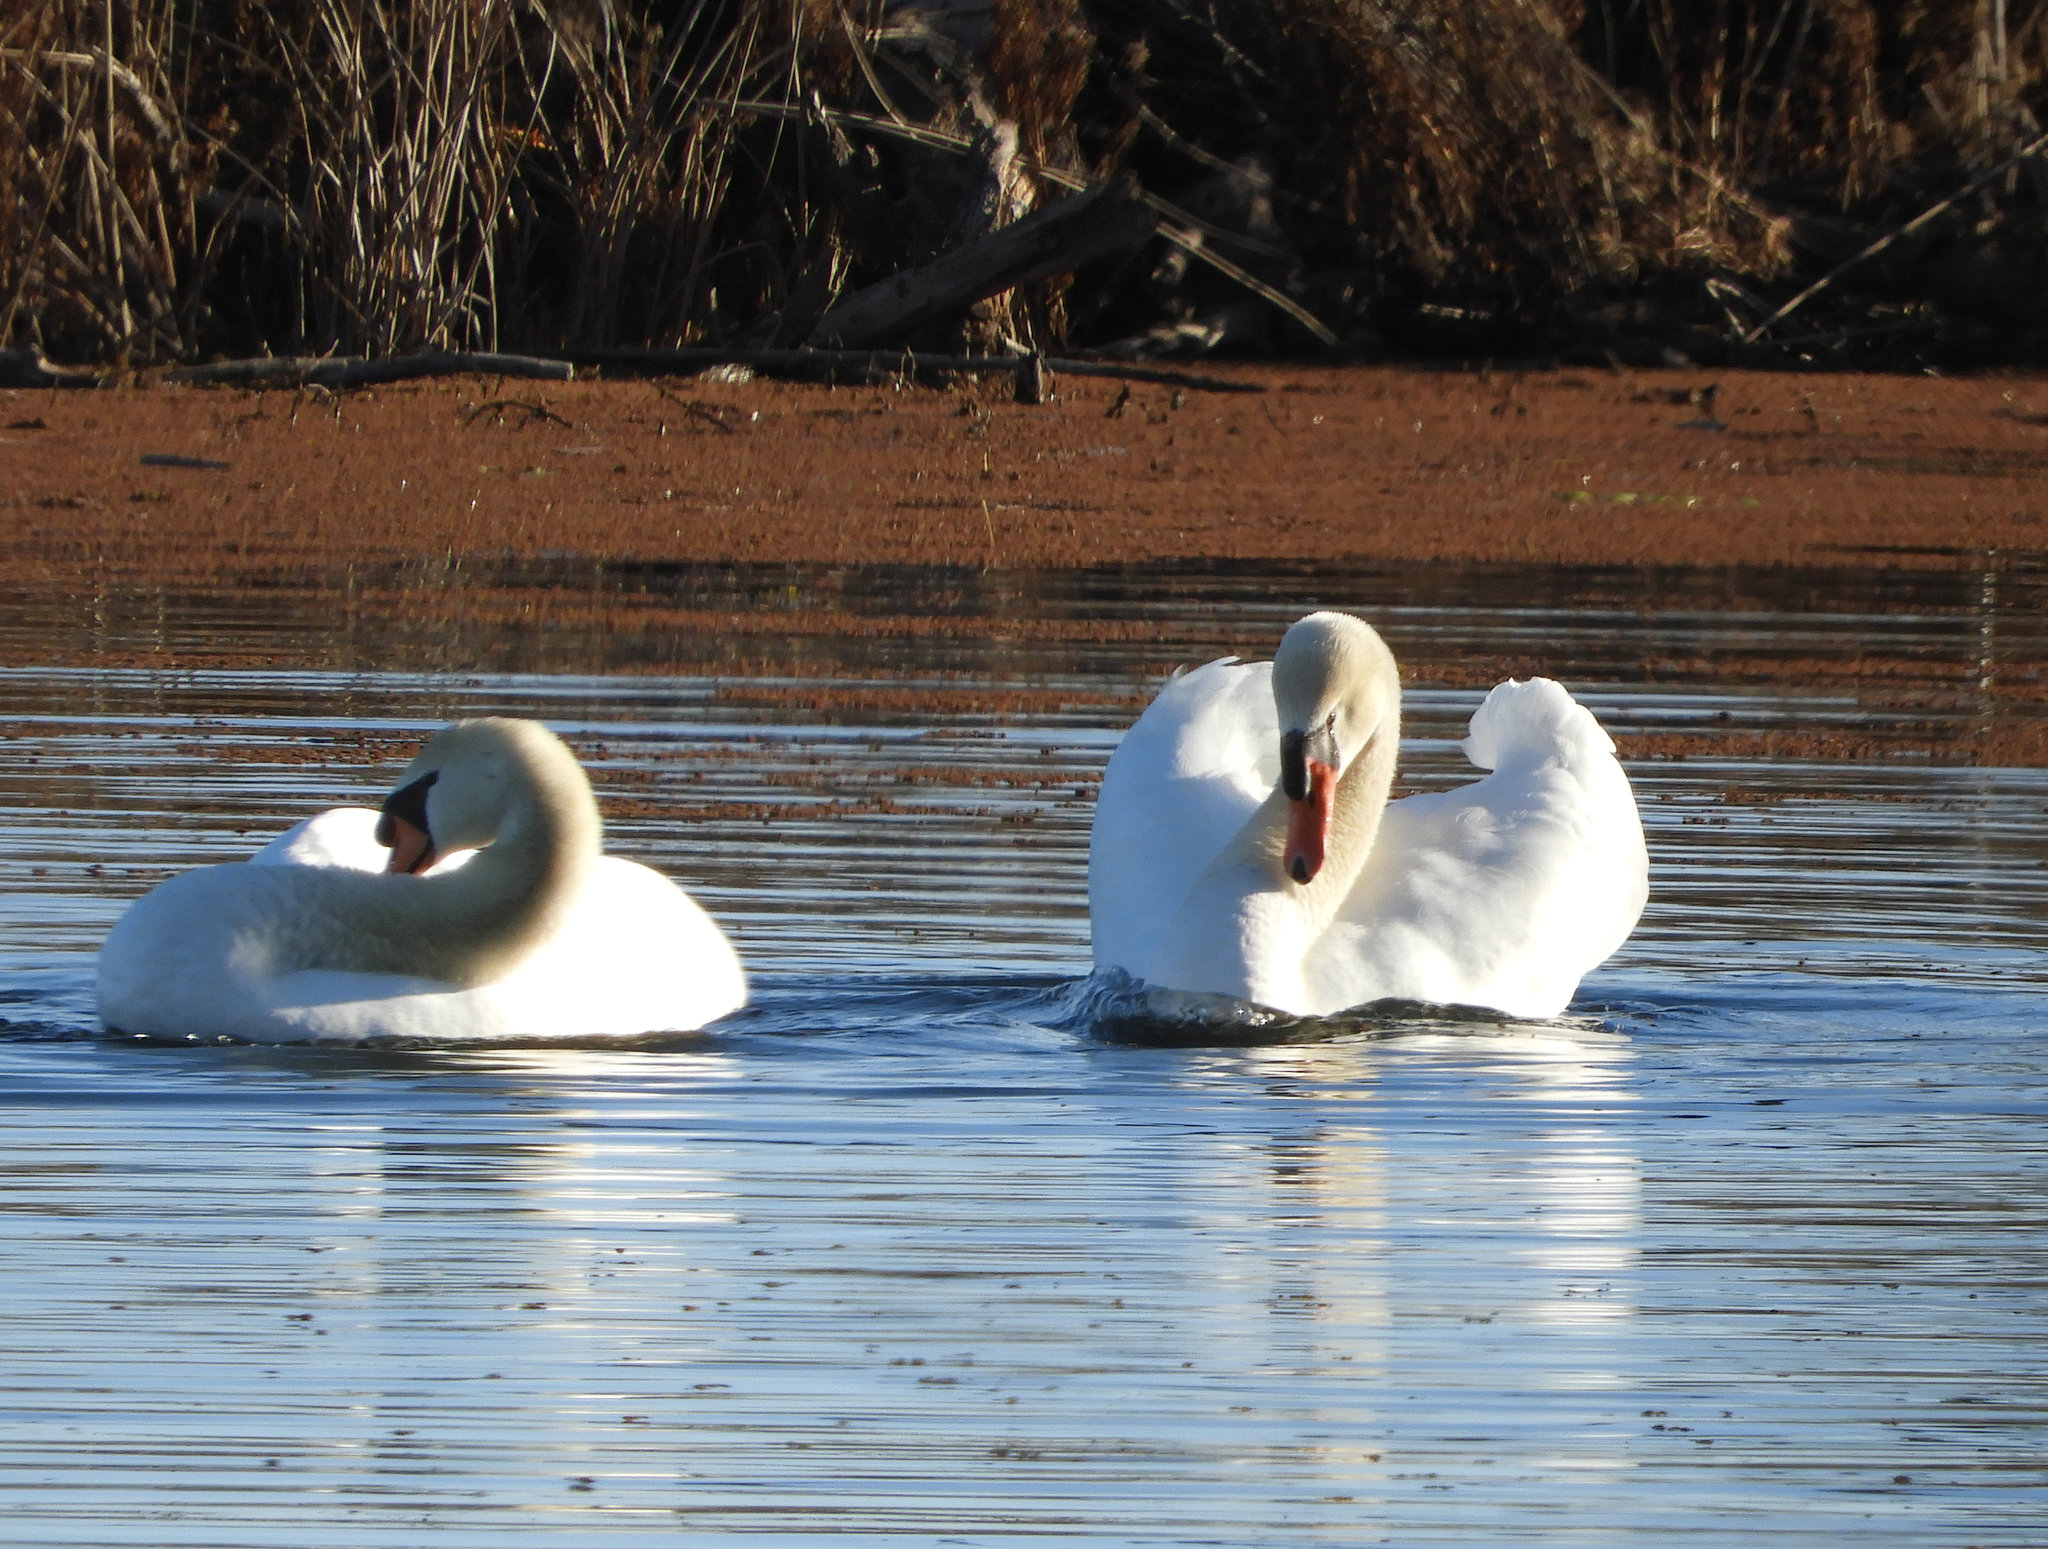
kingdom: Animalia
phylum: Chordata
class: Aves
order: Anseriformes
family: Anatidae
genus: Cygnus
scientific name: Cygnus olor
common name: Mute swan
